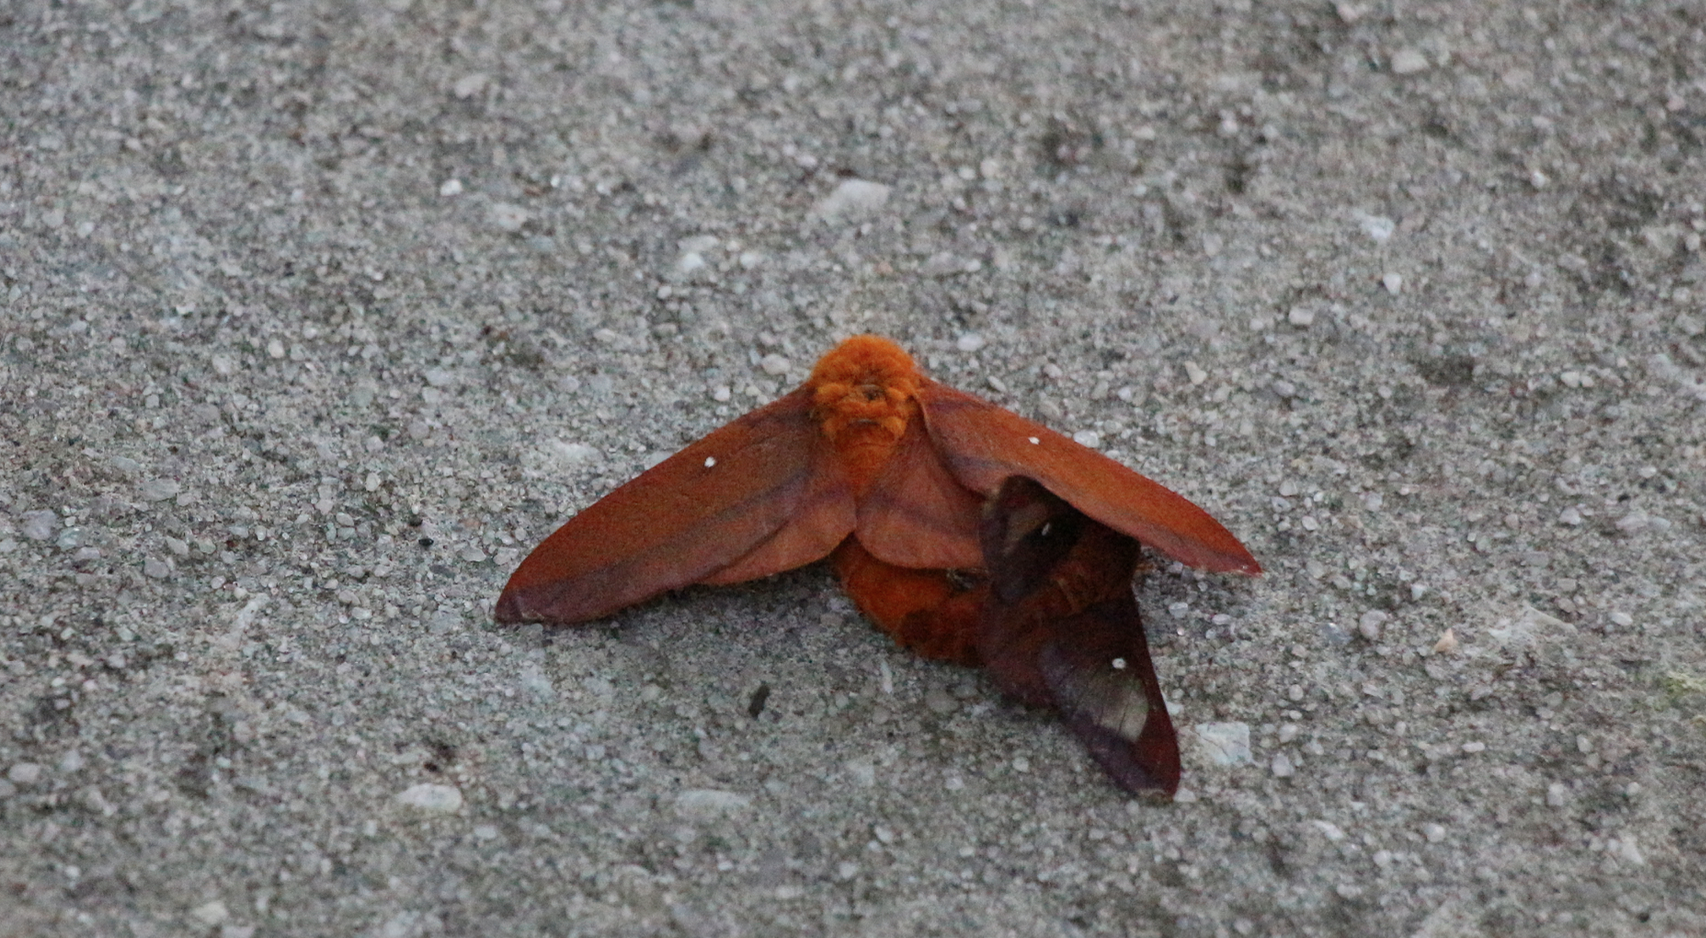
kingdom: Animalia
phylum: Arthropoda
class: Insecta
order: Lepidoptera
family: Saturniidae
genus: Anisota
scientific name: Anisota virginiensis
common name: Pink striped oakworm moth
